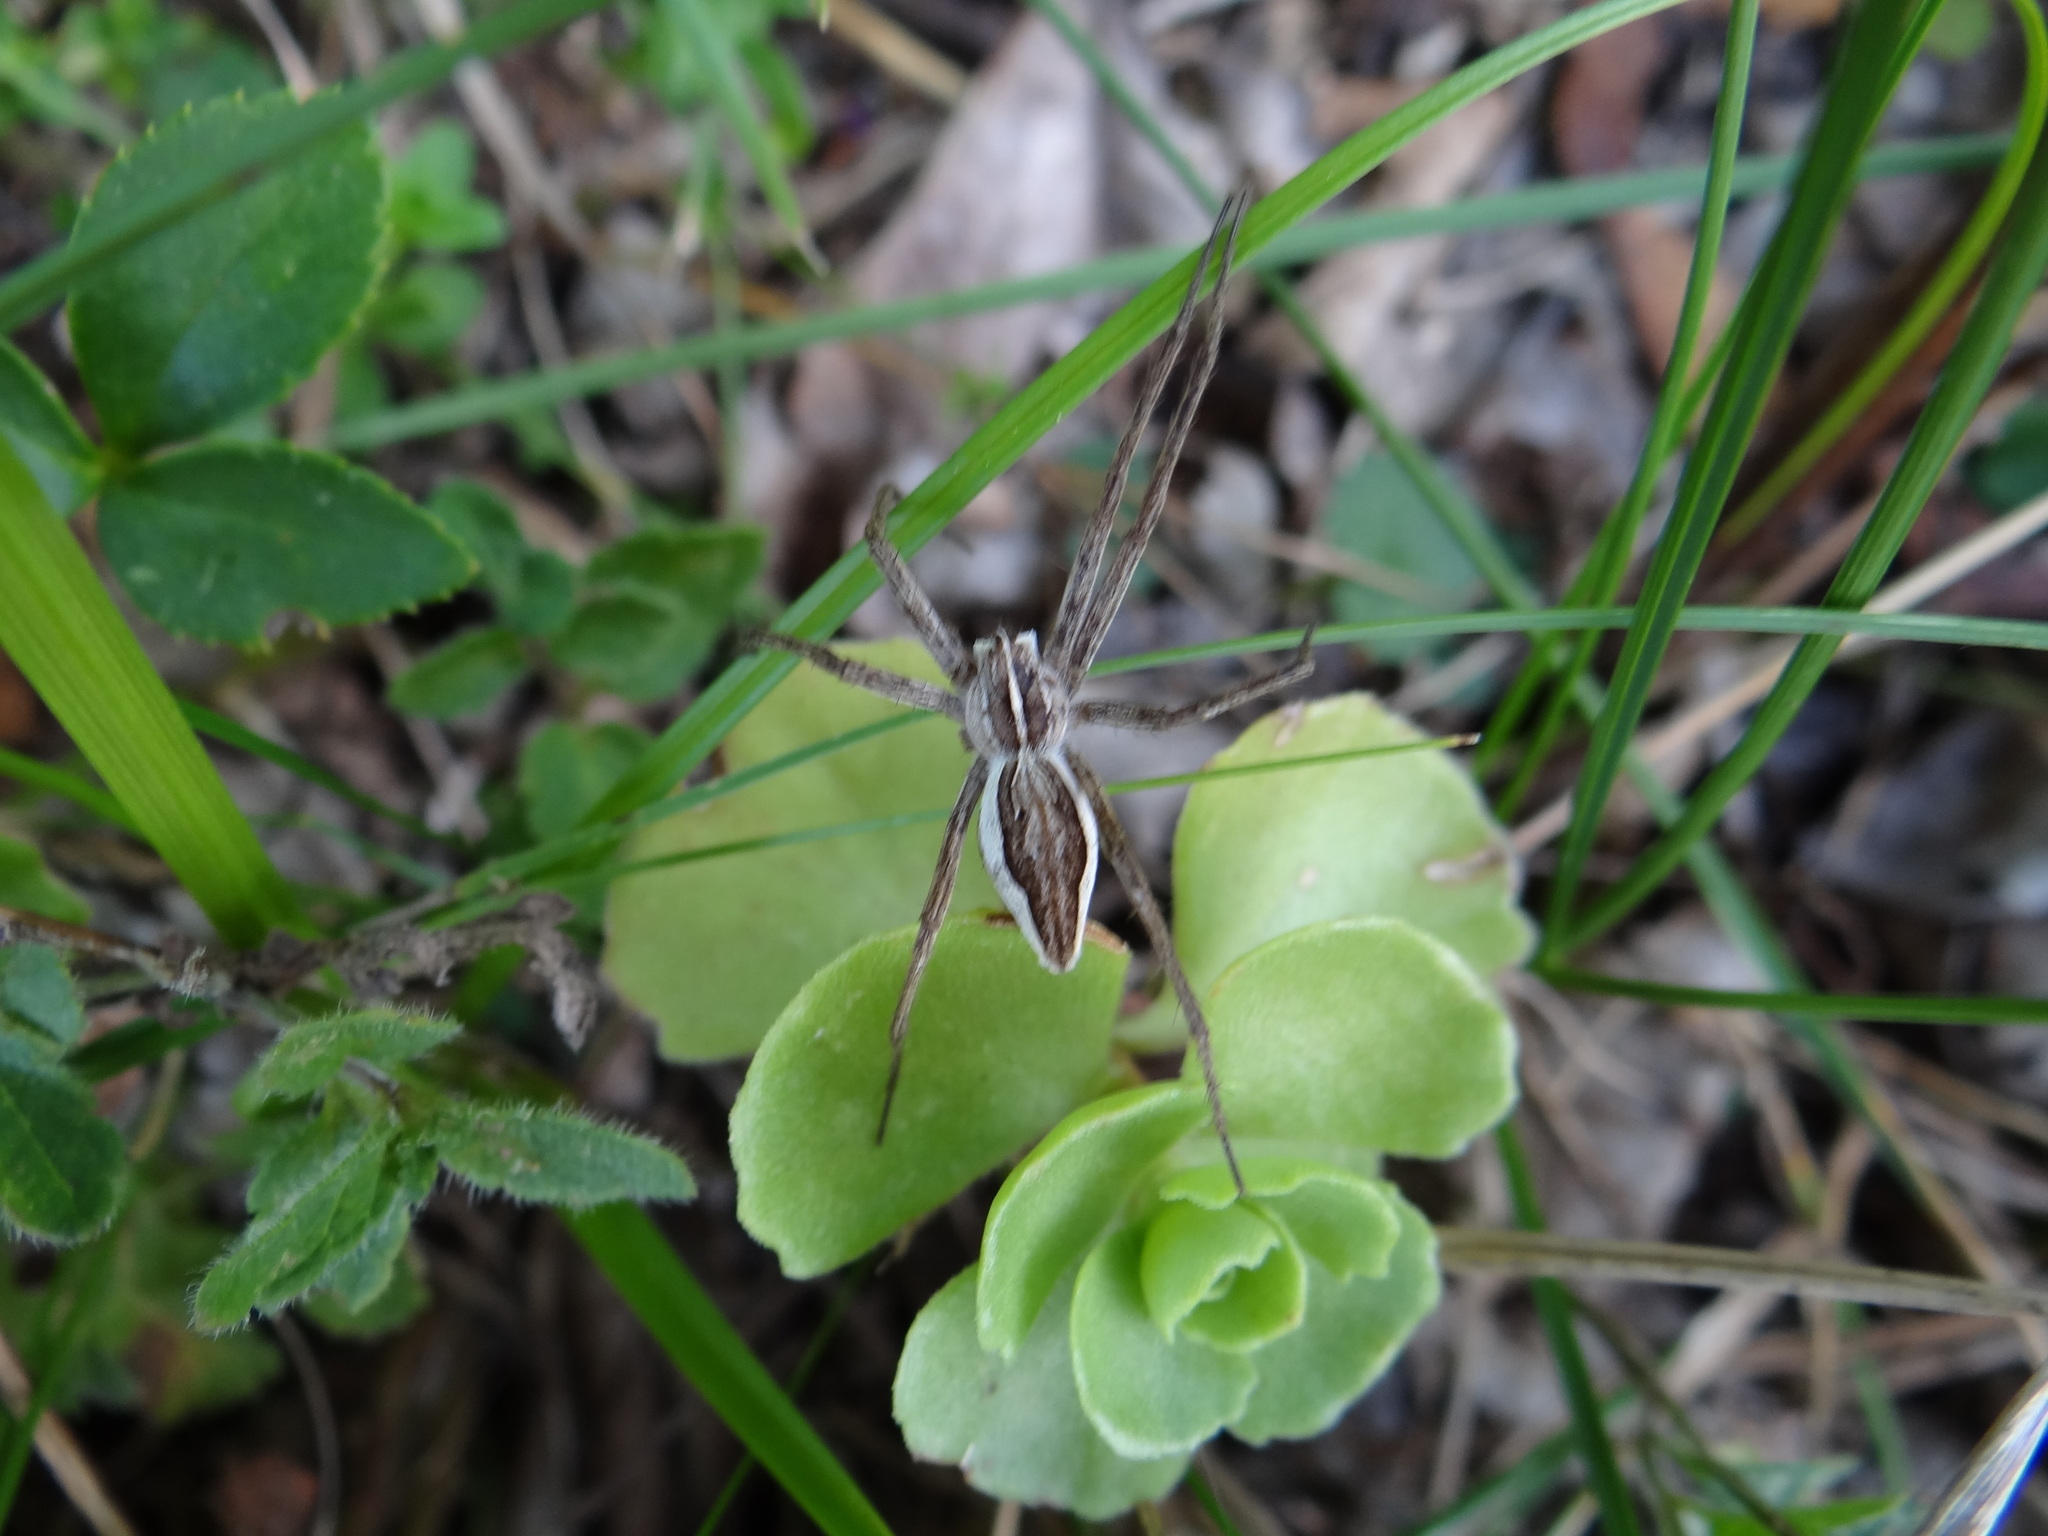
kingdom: Animalia
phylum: Arthropoda
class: Arachnida
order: Araneae
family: Pisauridae
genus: Pisaura
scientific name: Pisaura mirabilis
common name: Tent spider
